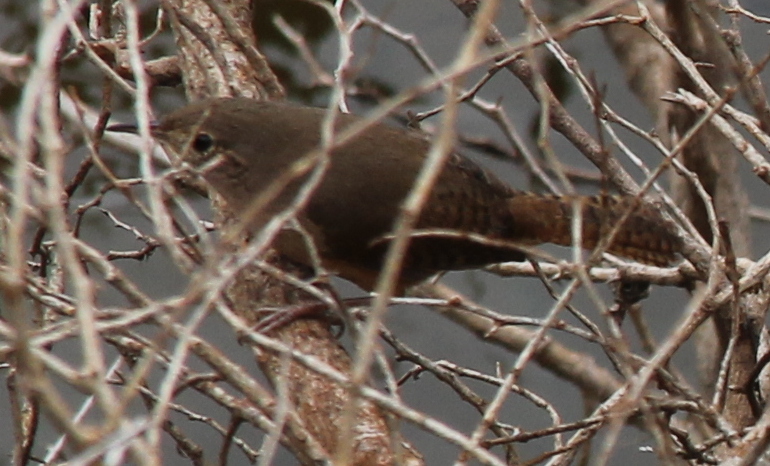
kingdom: Animalia
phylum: Chordata
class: Aves
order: Passeriformes
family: Troglodytidae
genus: Troglodytes
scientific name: Troglodytes aedon
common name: House wren
